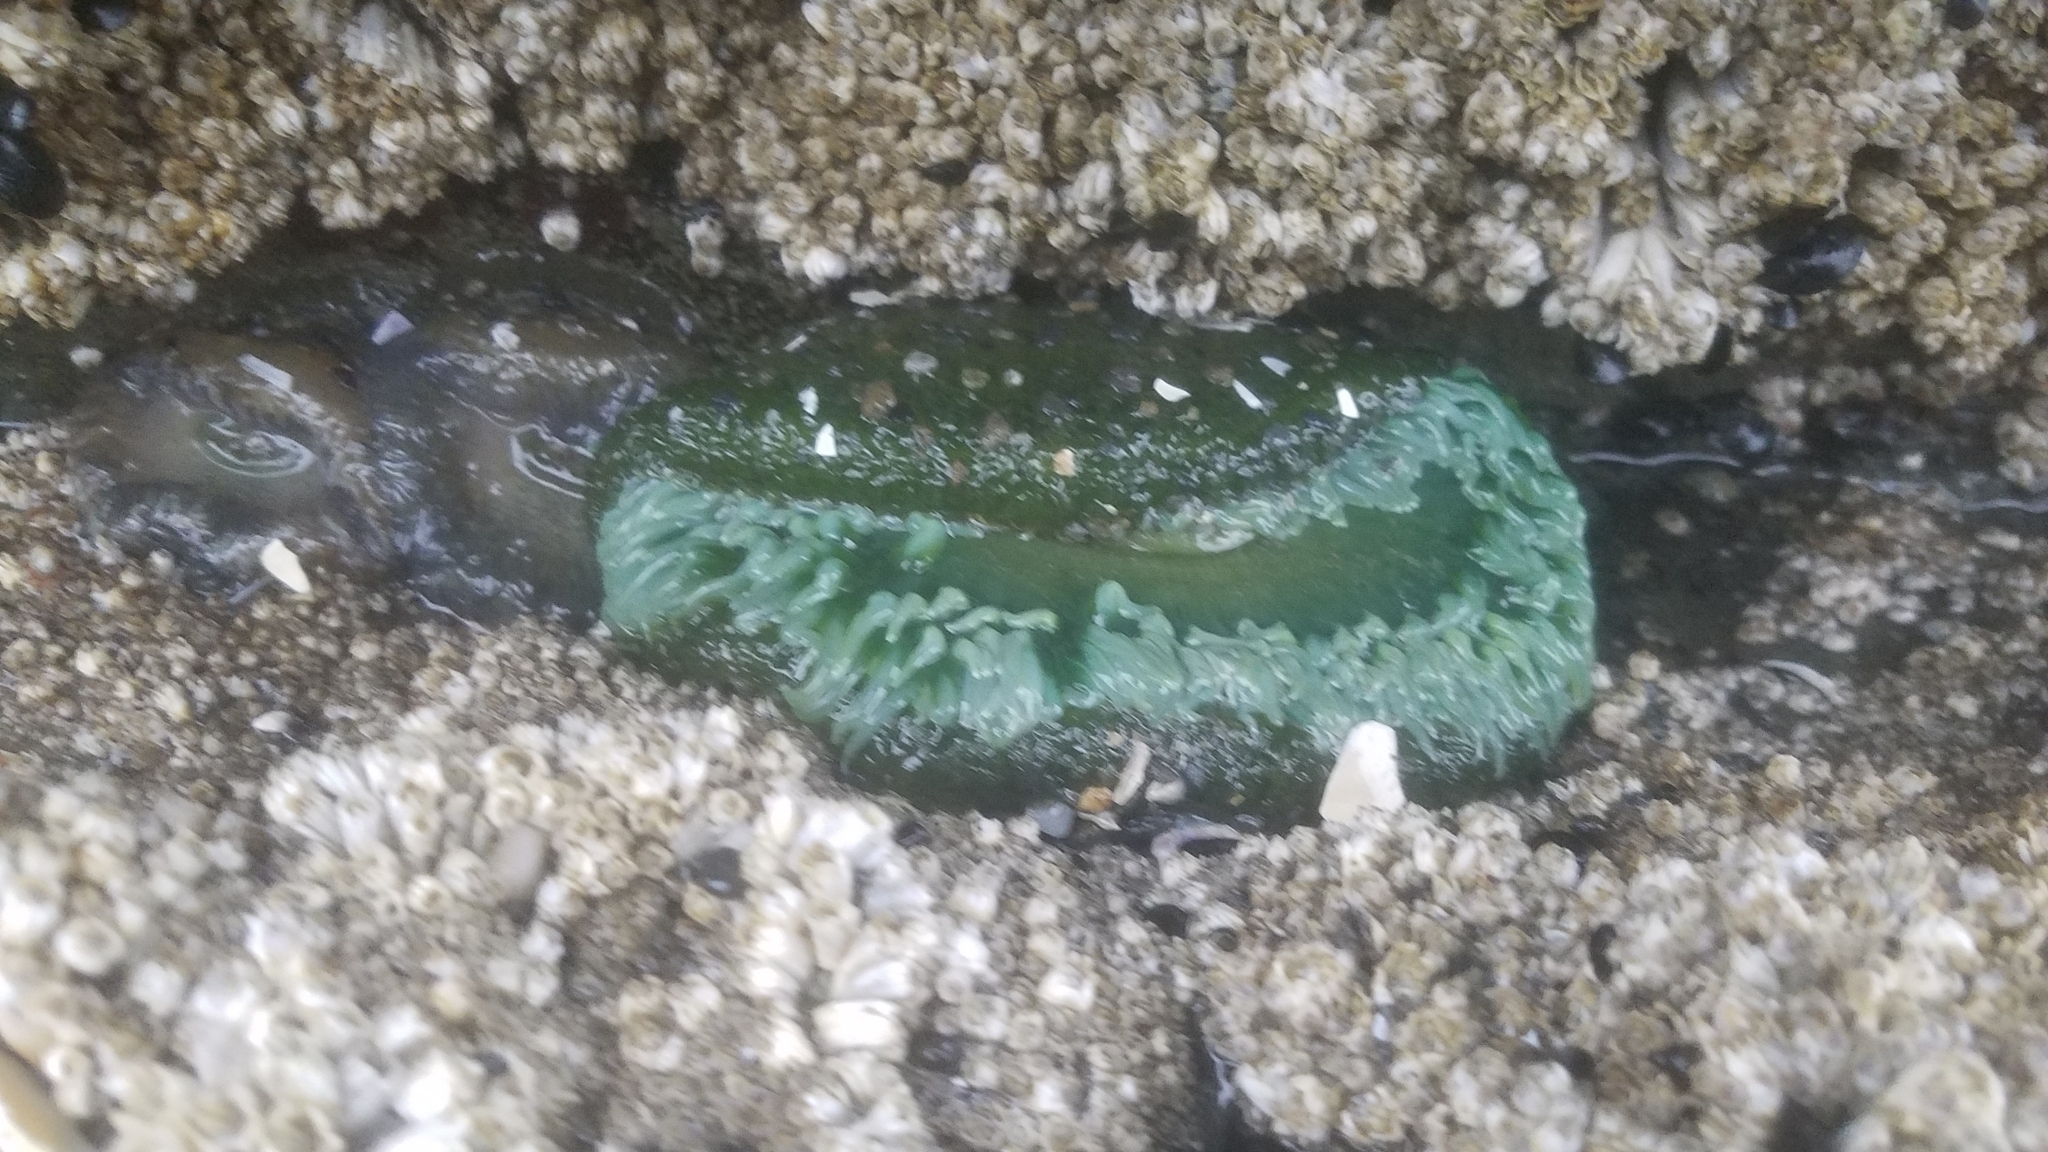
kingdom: Animalia
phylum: Cnidaria
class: Anthozoa
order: Actiniaria
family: Actiniidae
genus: Anthopleura
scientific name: Anthopleura xanthogrammica
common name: Giant green anemone
